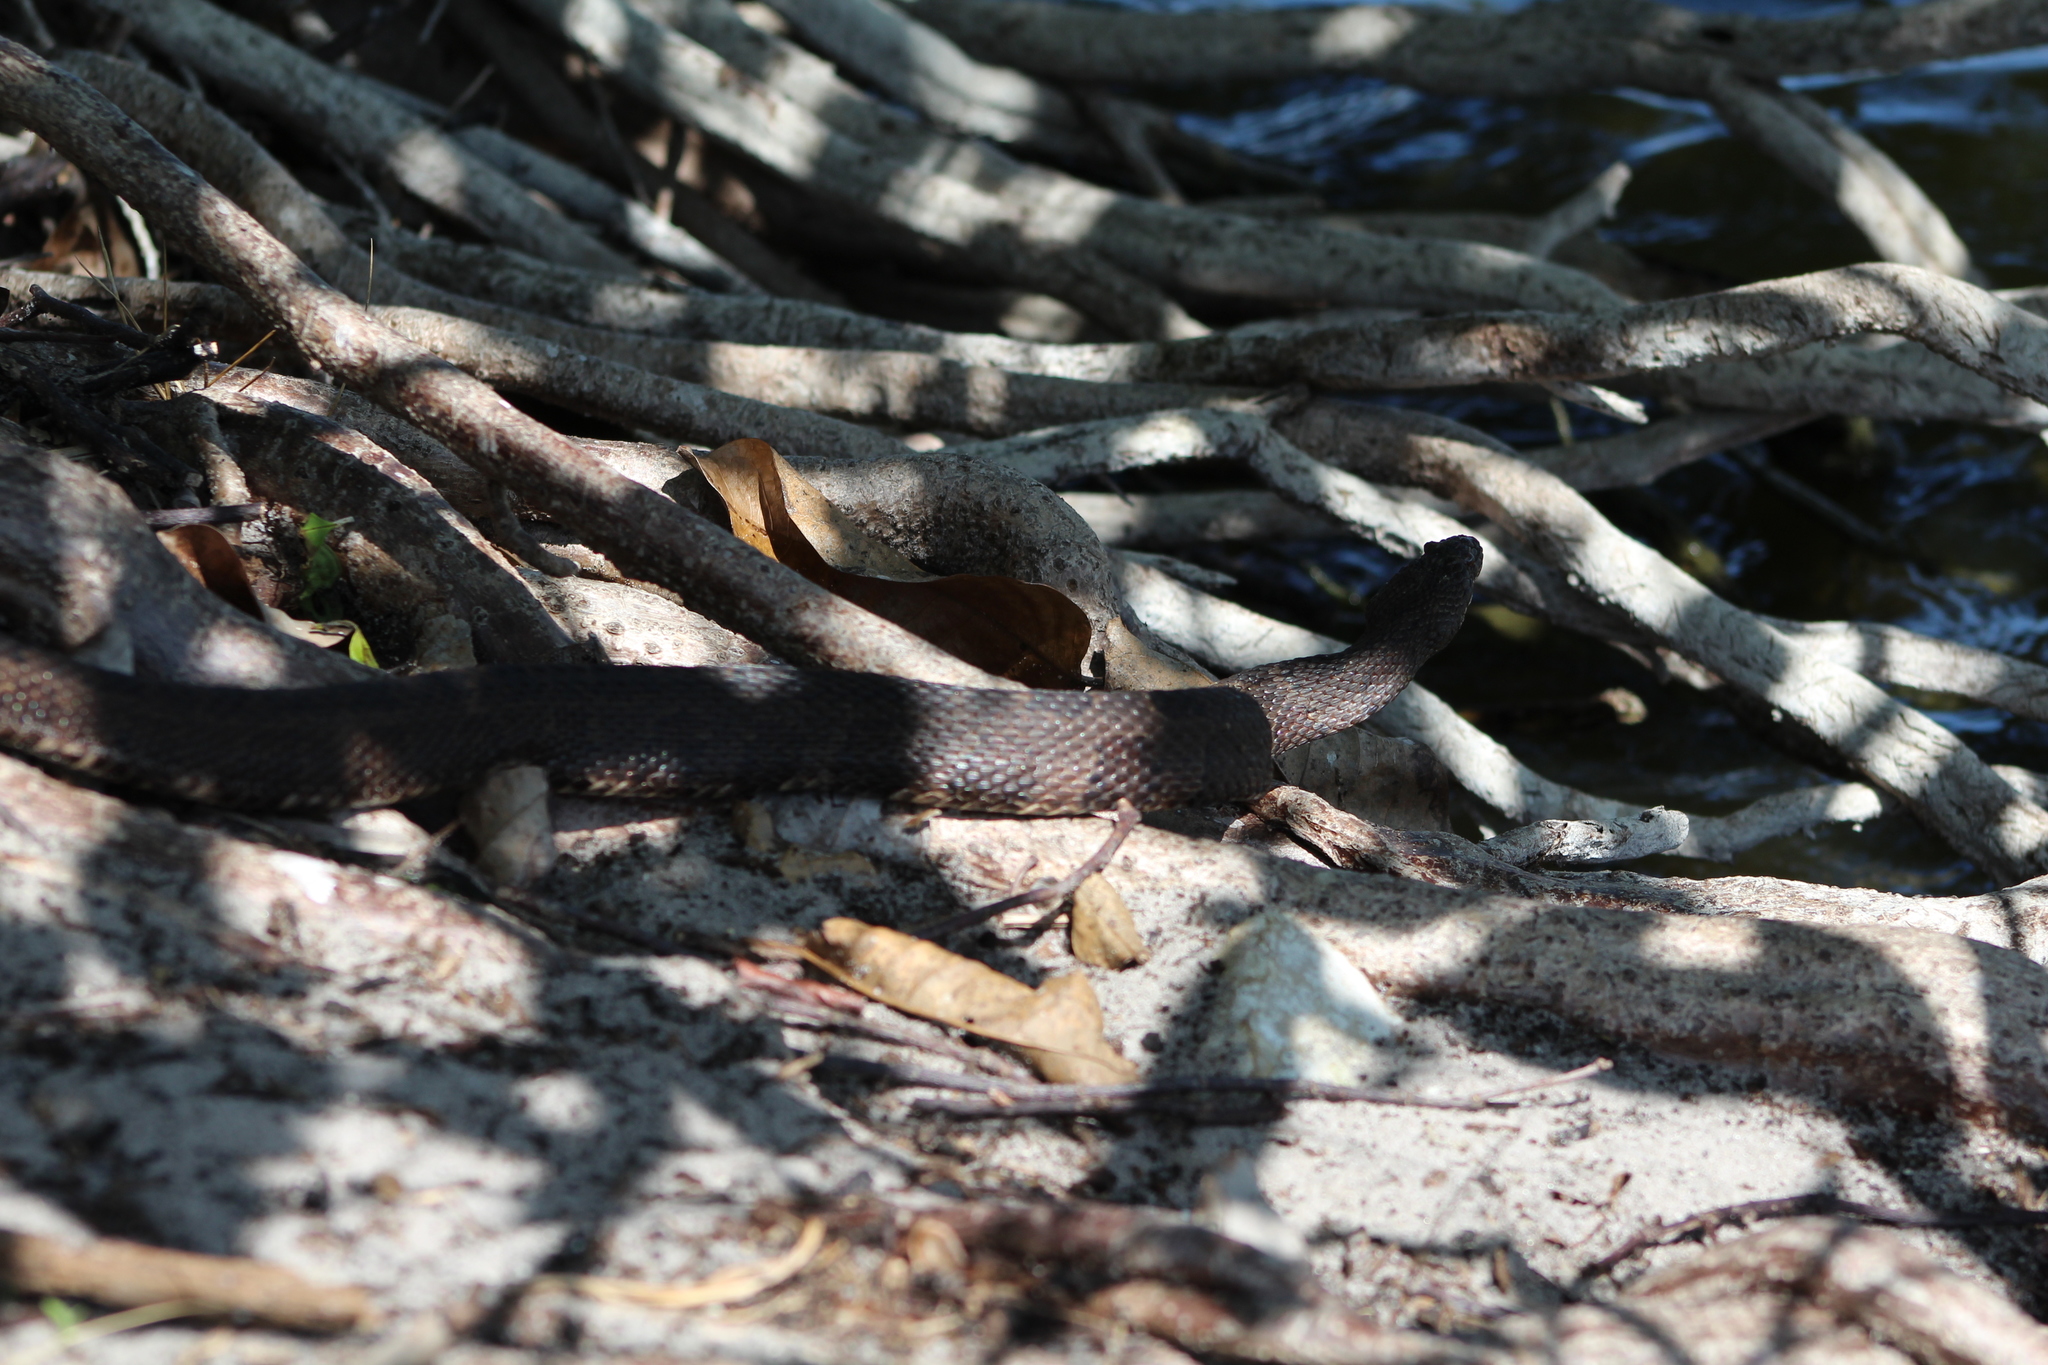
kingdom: Animalia
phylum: Chordata
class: Squamata
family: Colubridae
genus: Nerodia
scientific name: Nerodia taxispilota
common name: Brown water snake
